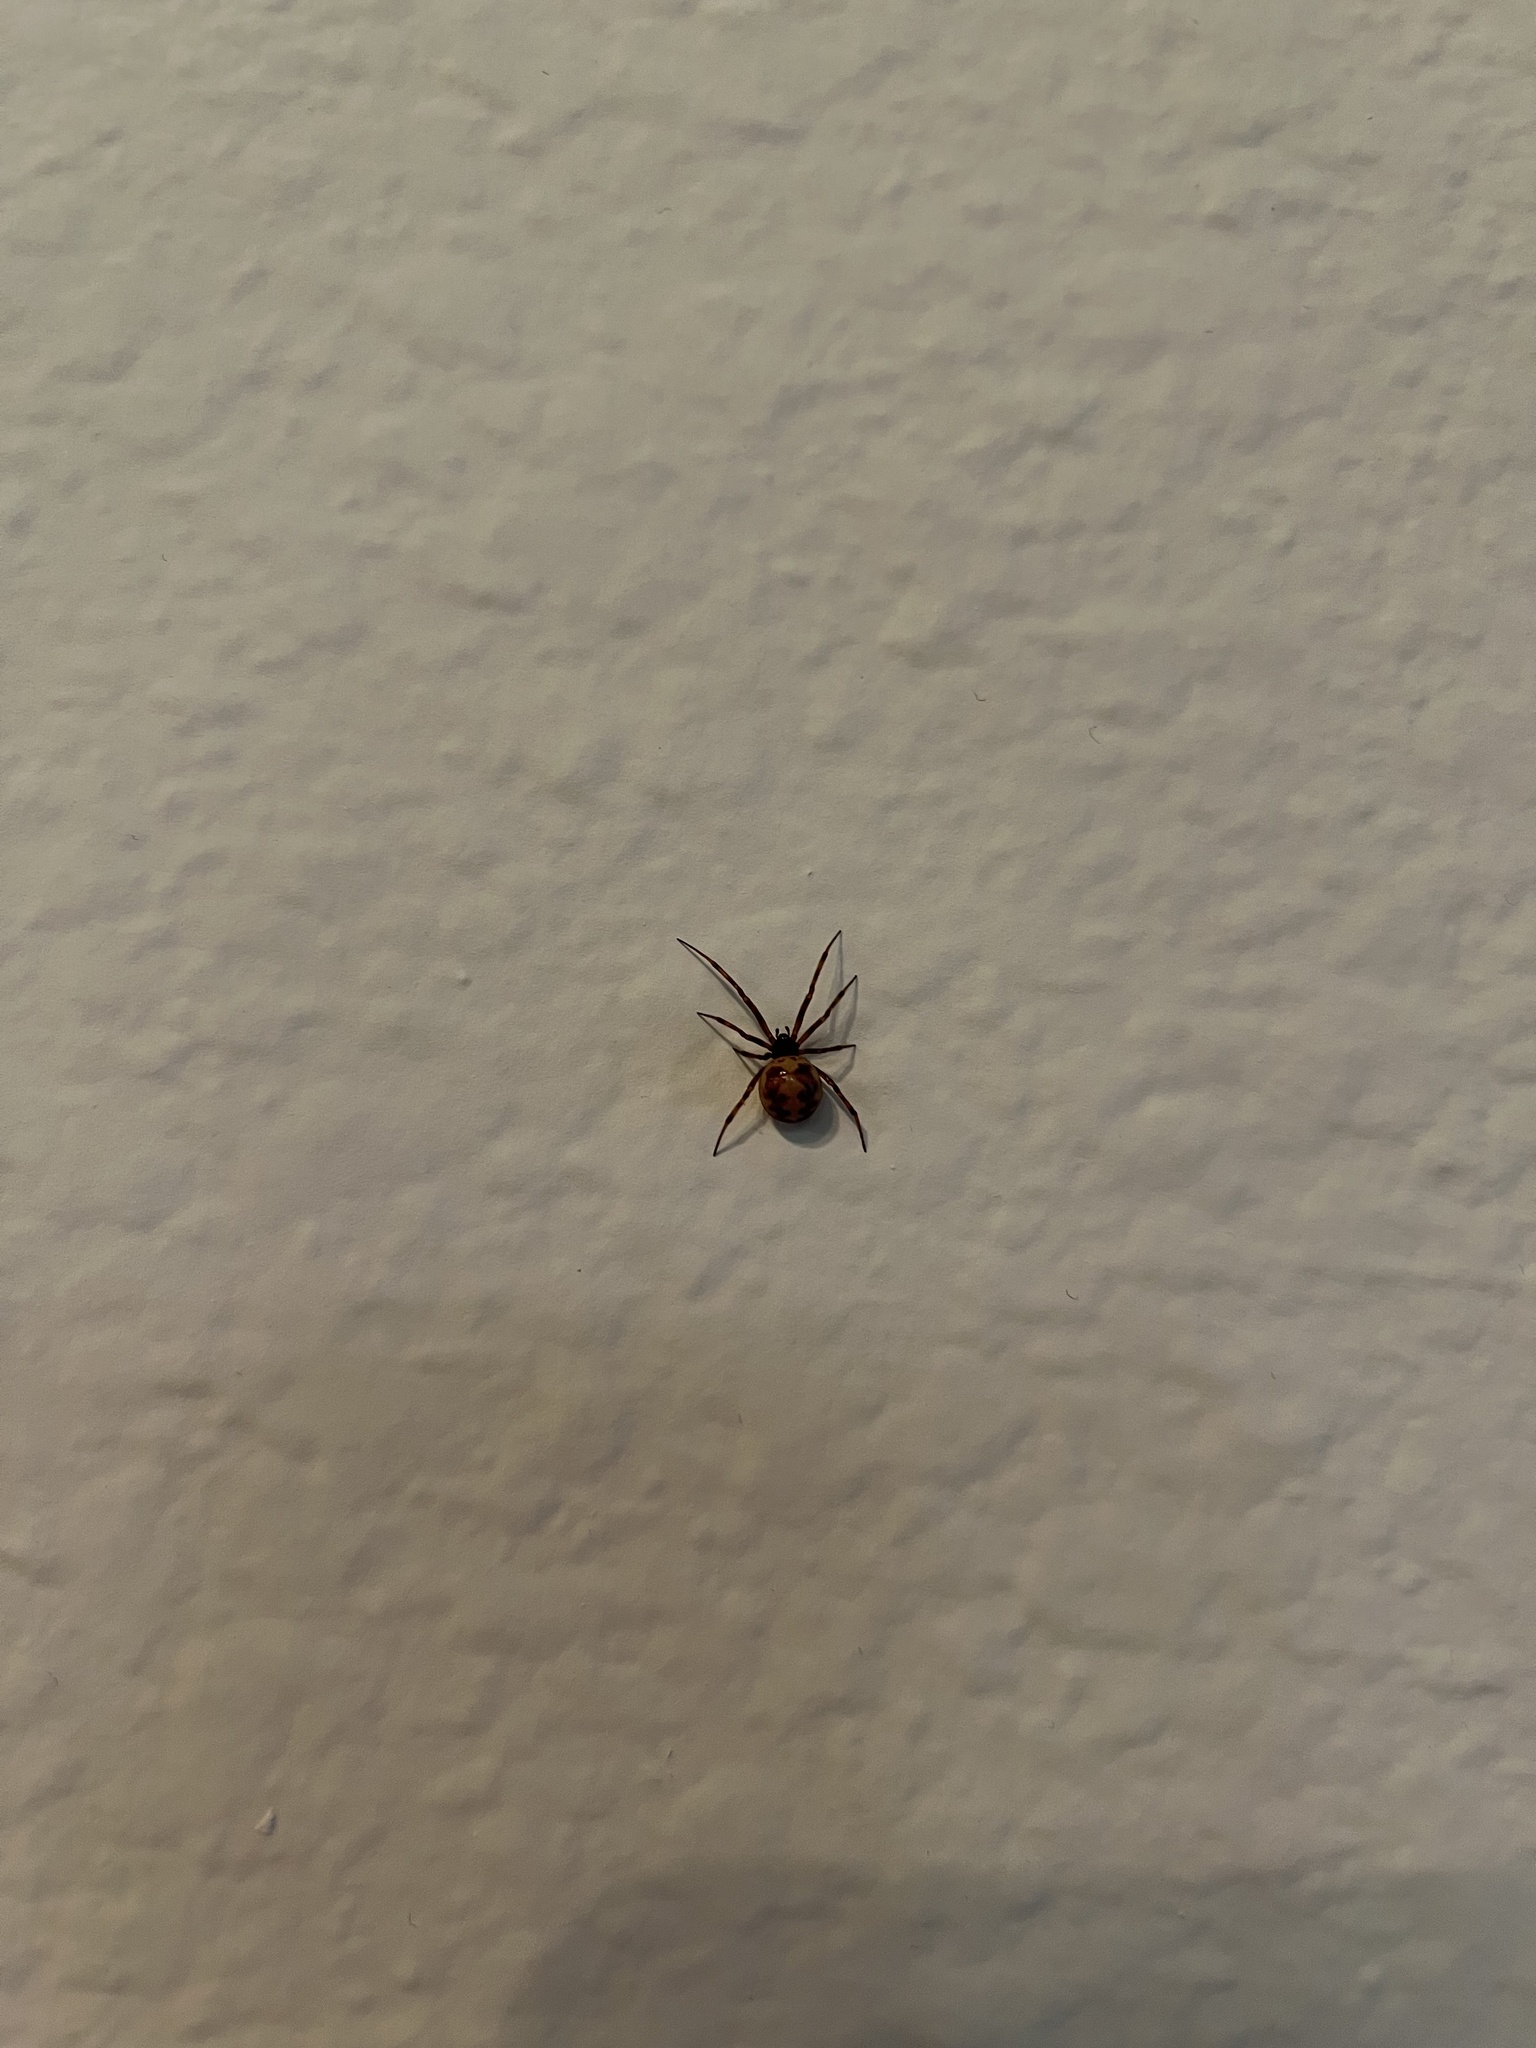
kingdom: Animalia
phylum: Arthropoda
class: Arachnida
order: Araneae
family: Theridiidae
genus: Steatoda
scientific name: Steatoda triangulosa
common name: Triangulate bud spider
